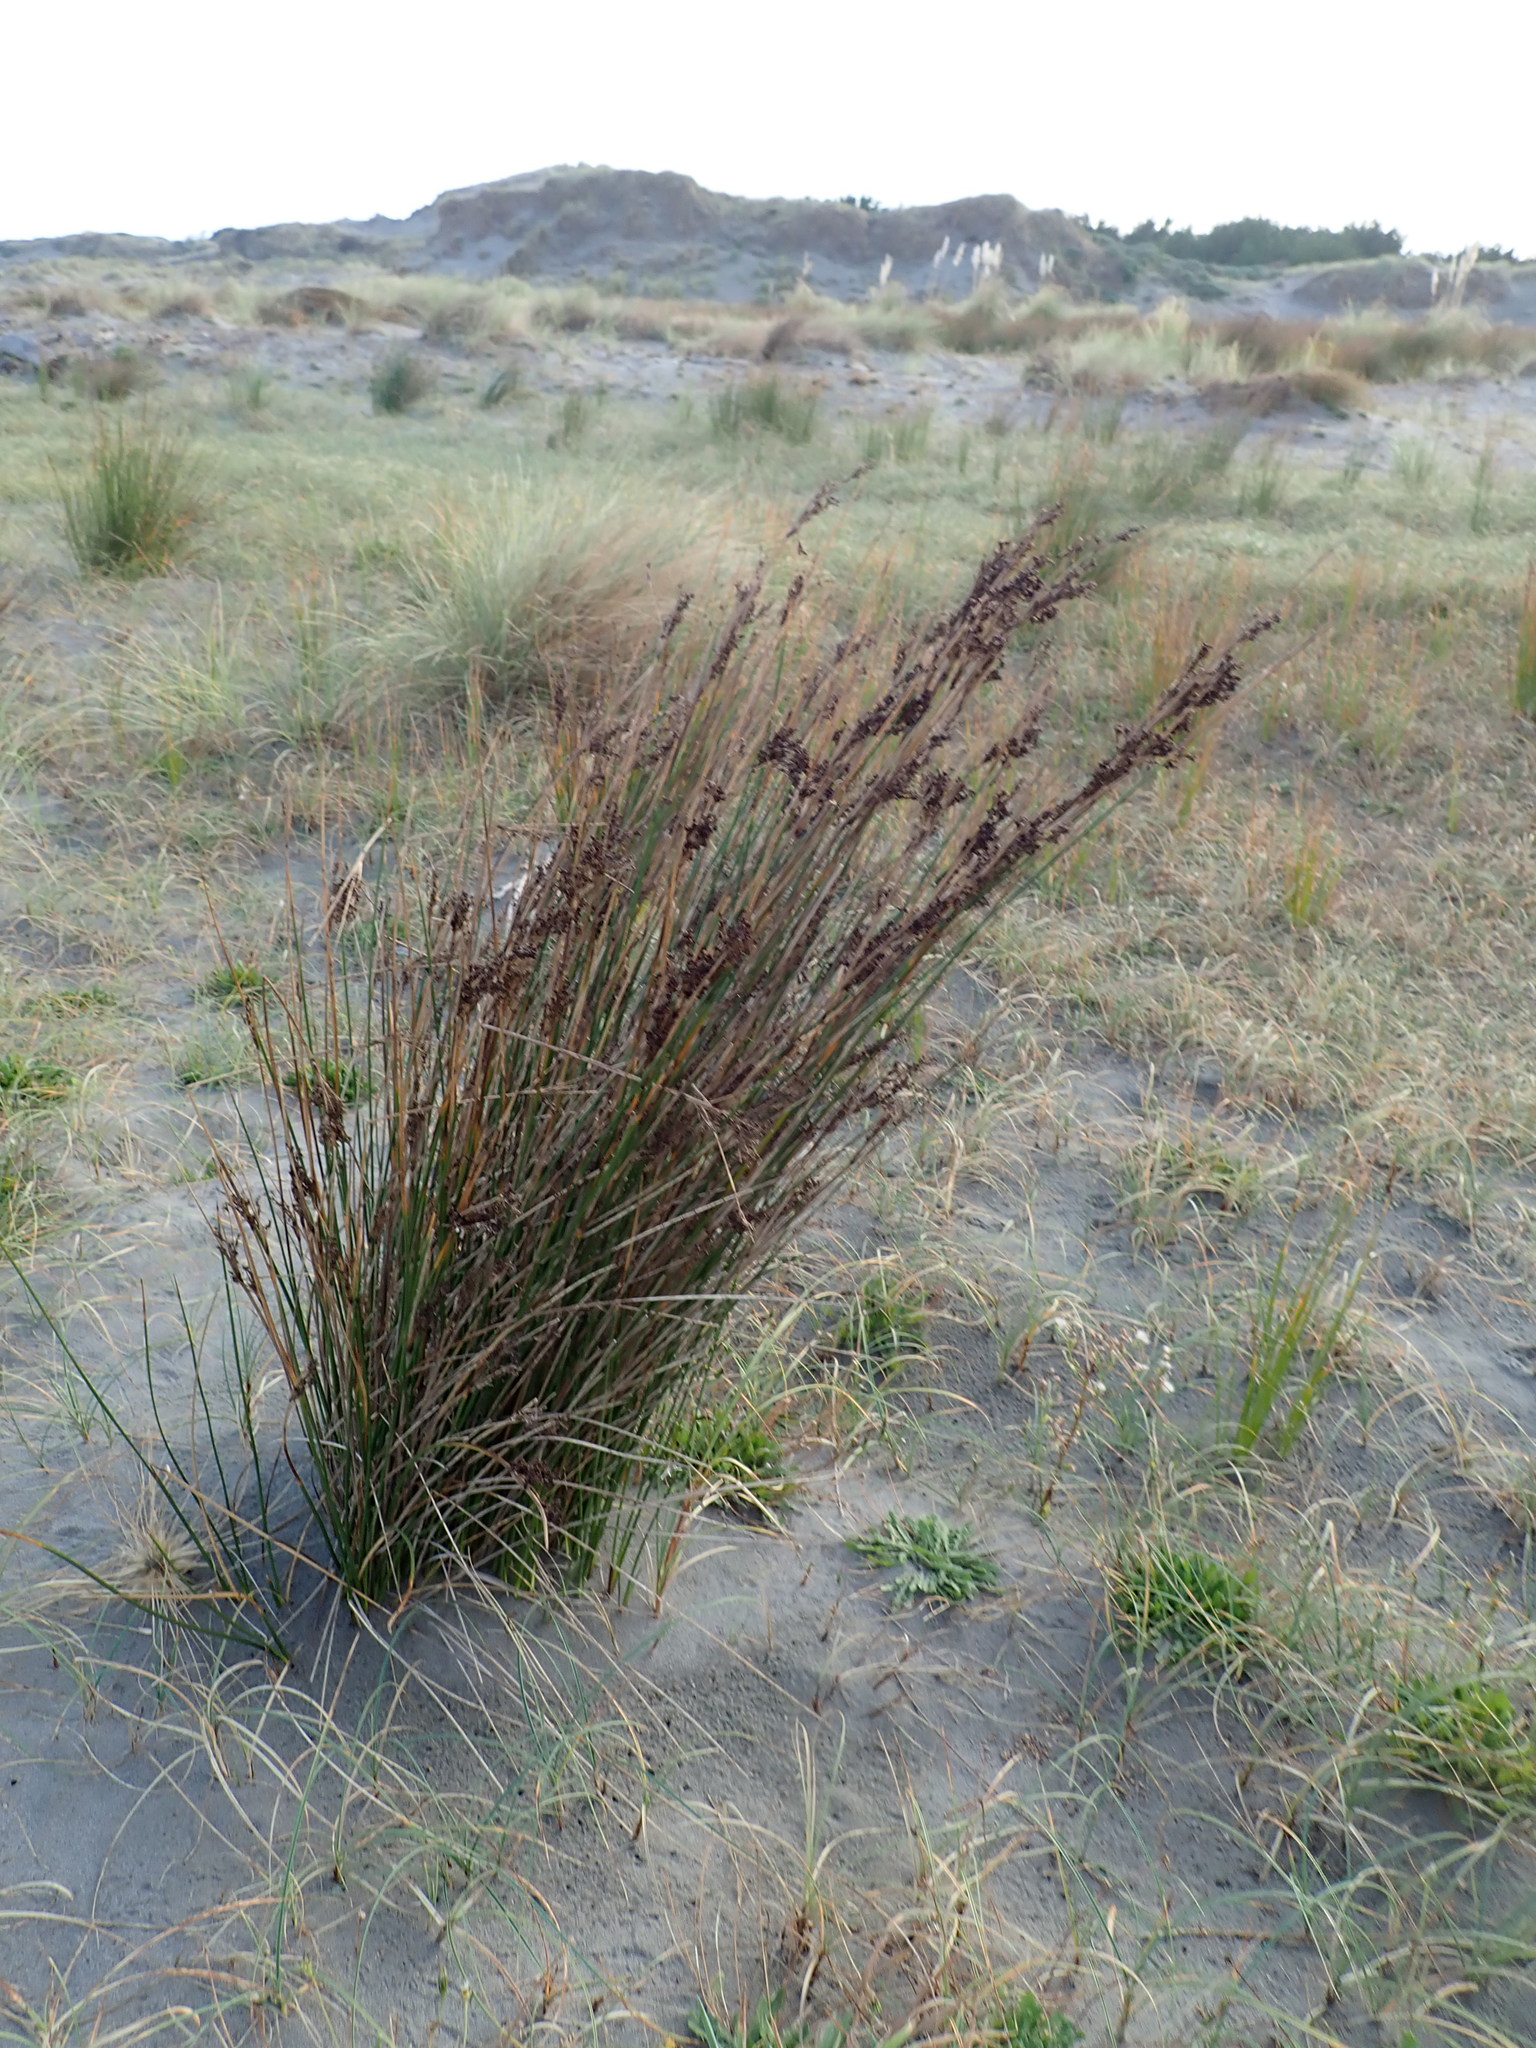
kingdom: Plantae
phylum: Tracheophyta
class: Liliopsida
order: Poales
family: Juncaceae
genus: Juncus
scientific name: Juncus kraussii
